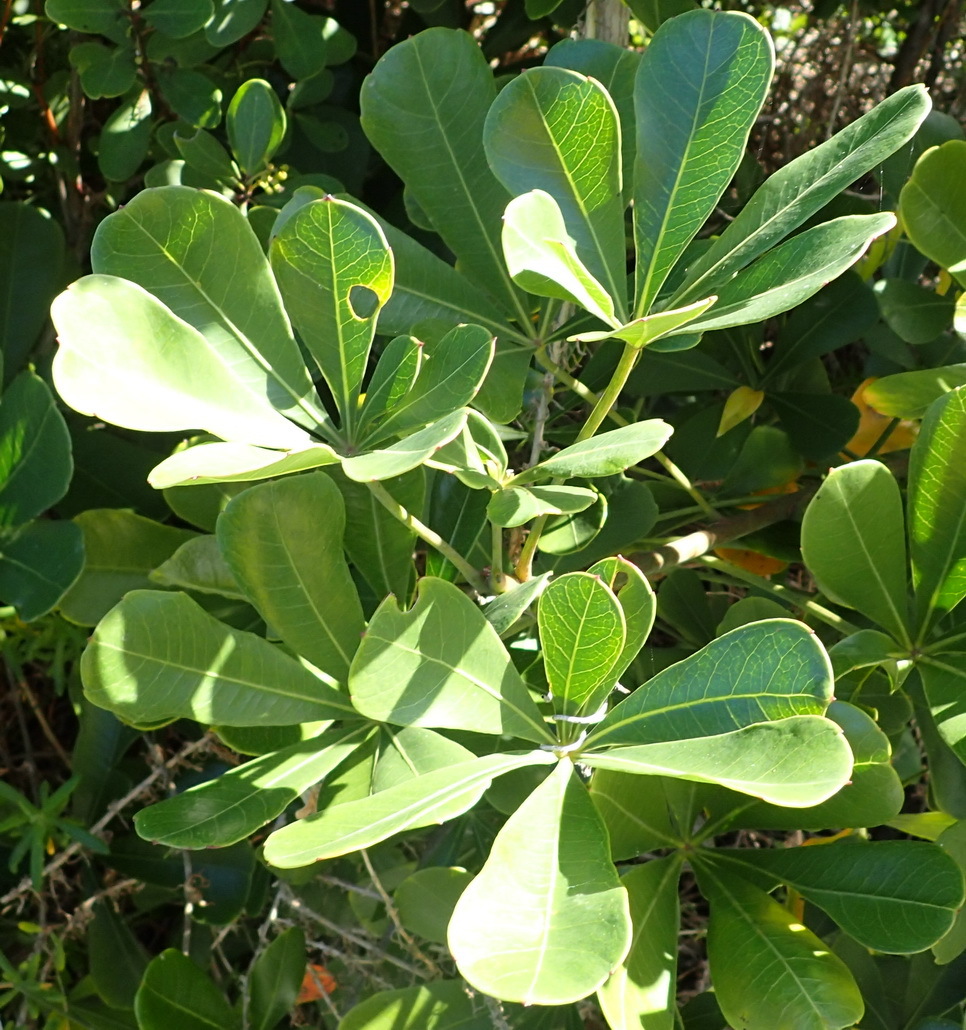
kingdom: Plantae
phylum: Tracheophyta
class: Magnoliopsida
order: Apiales
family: Araliaceae
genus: Cussonia
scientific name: Cussonia thyrsiflora
